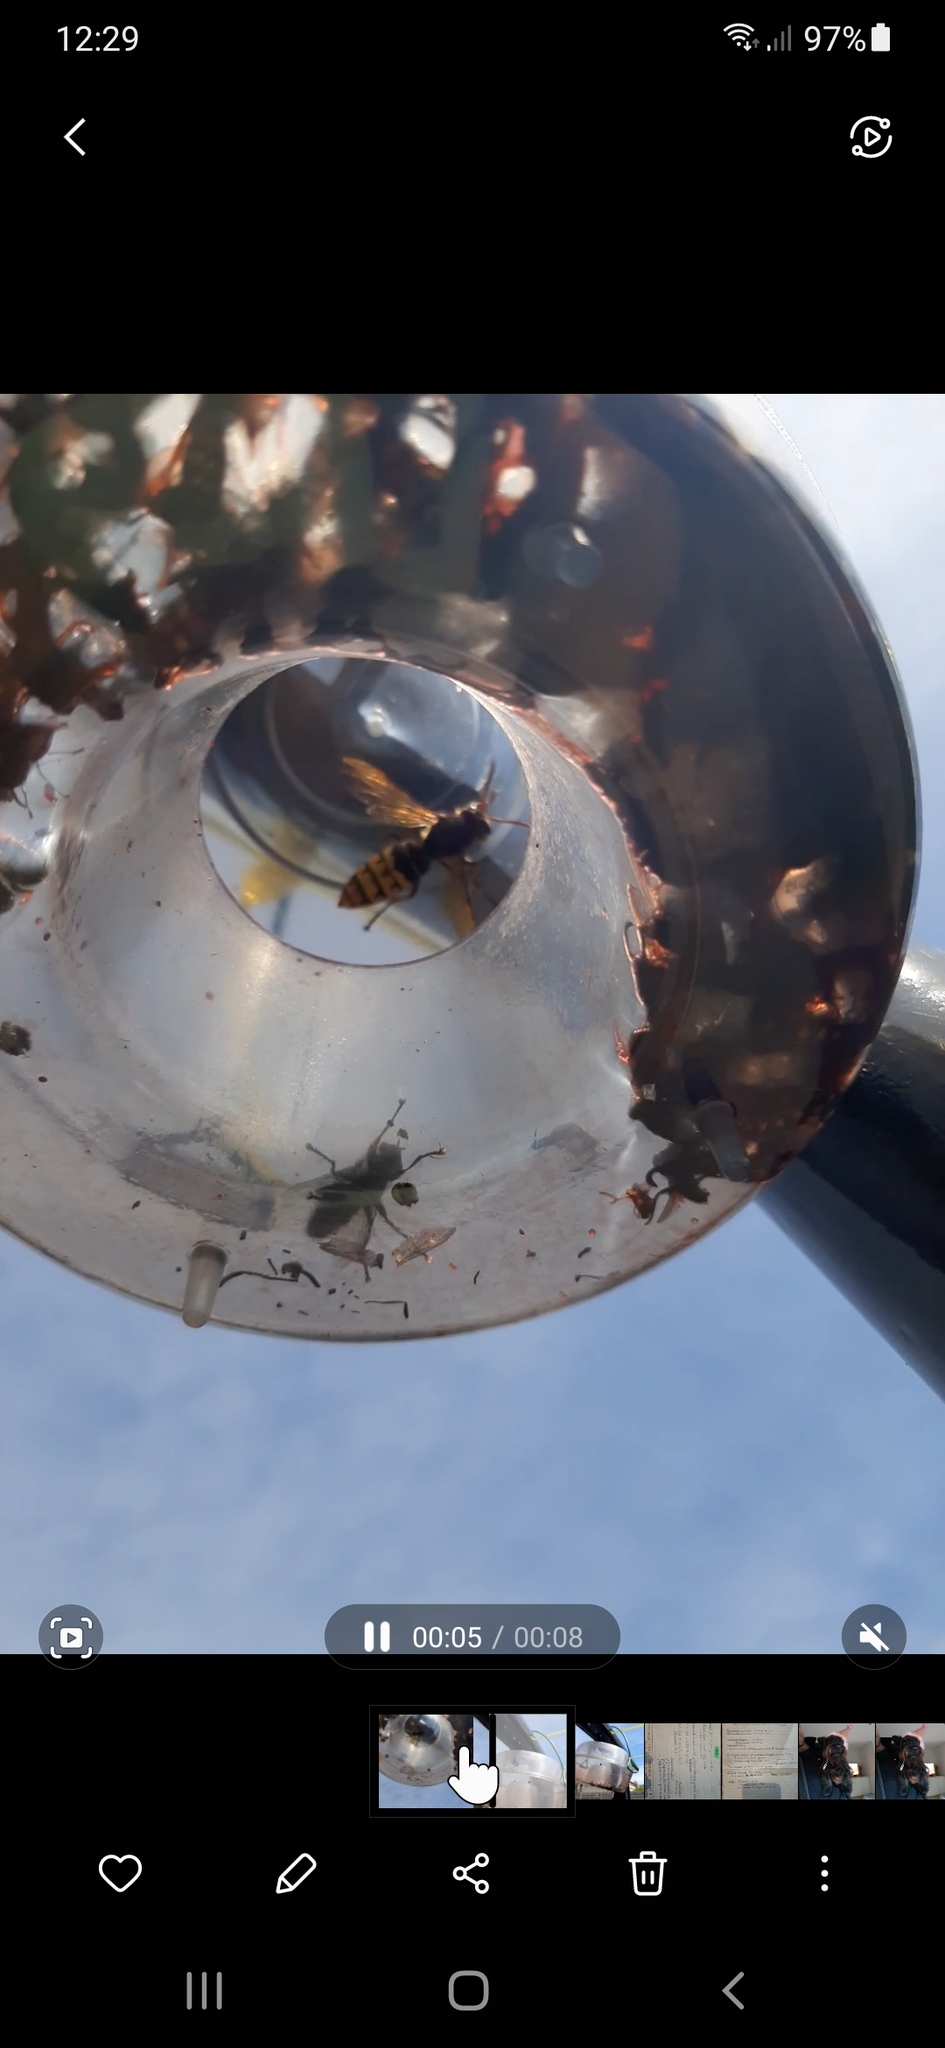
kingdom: Animalia
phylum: Arthropoda
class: Insecta
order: Hymenoptera
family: Vespidae
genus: Vespa
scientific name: Vespa crabro
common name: Hornet
